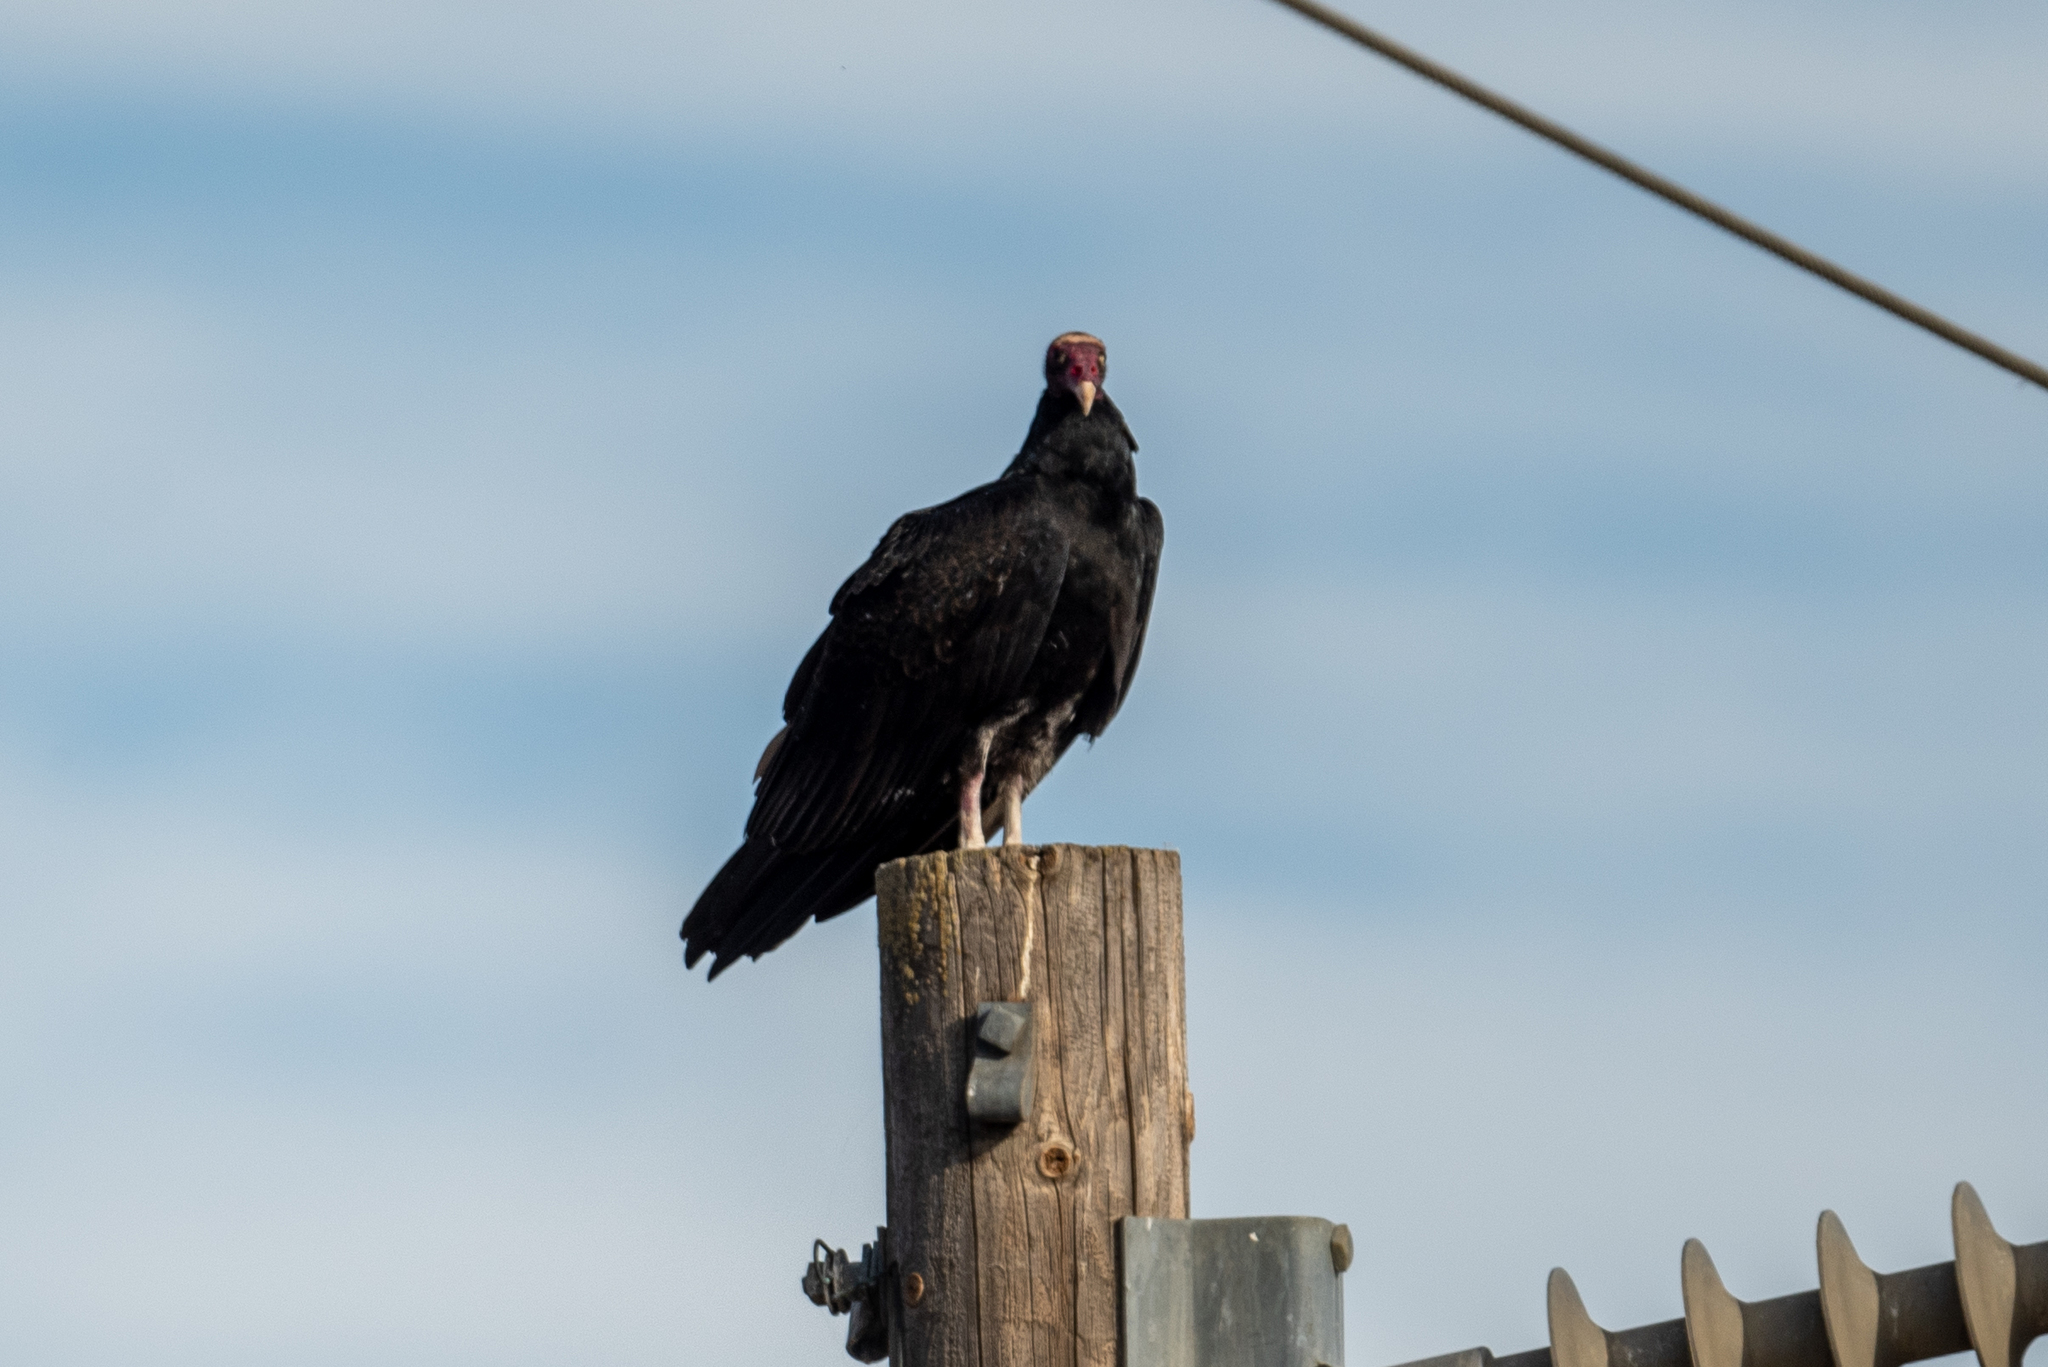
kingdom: Animalia
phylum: Chordata
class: Aves
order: Accipitriformes
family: Cathartidae
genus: Cathartes
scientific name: Cathartes aura
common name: Turkey vulture
